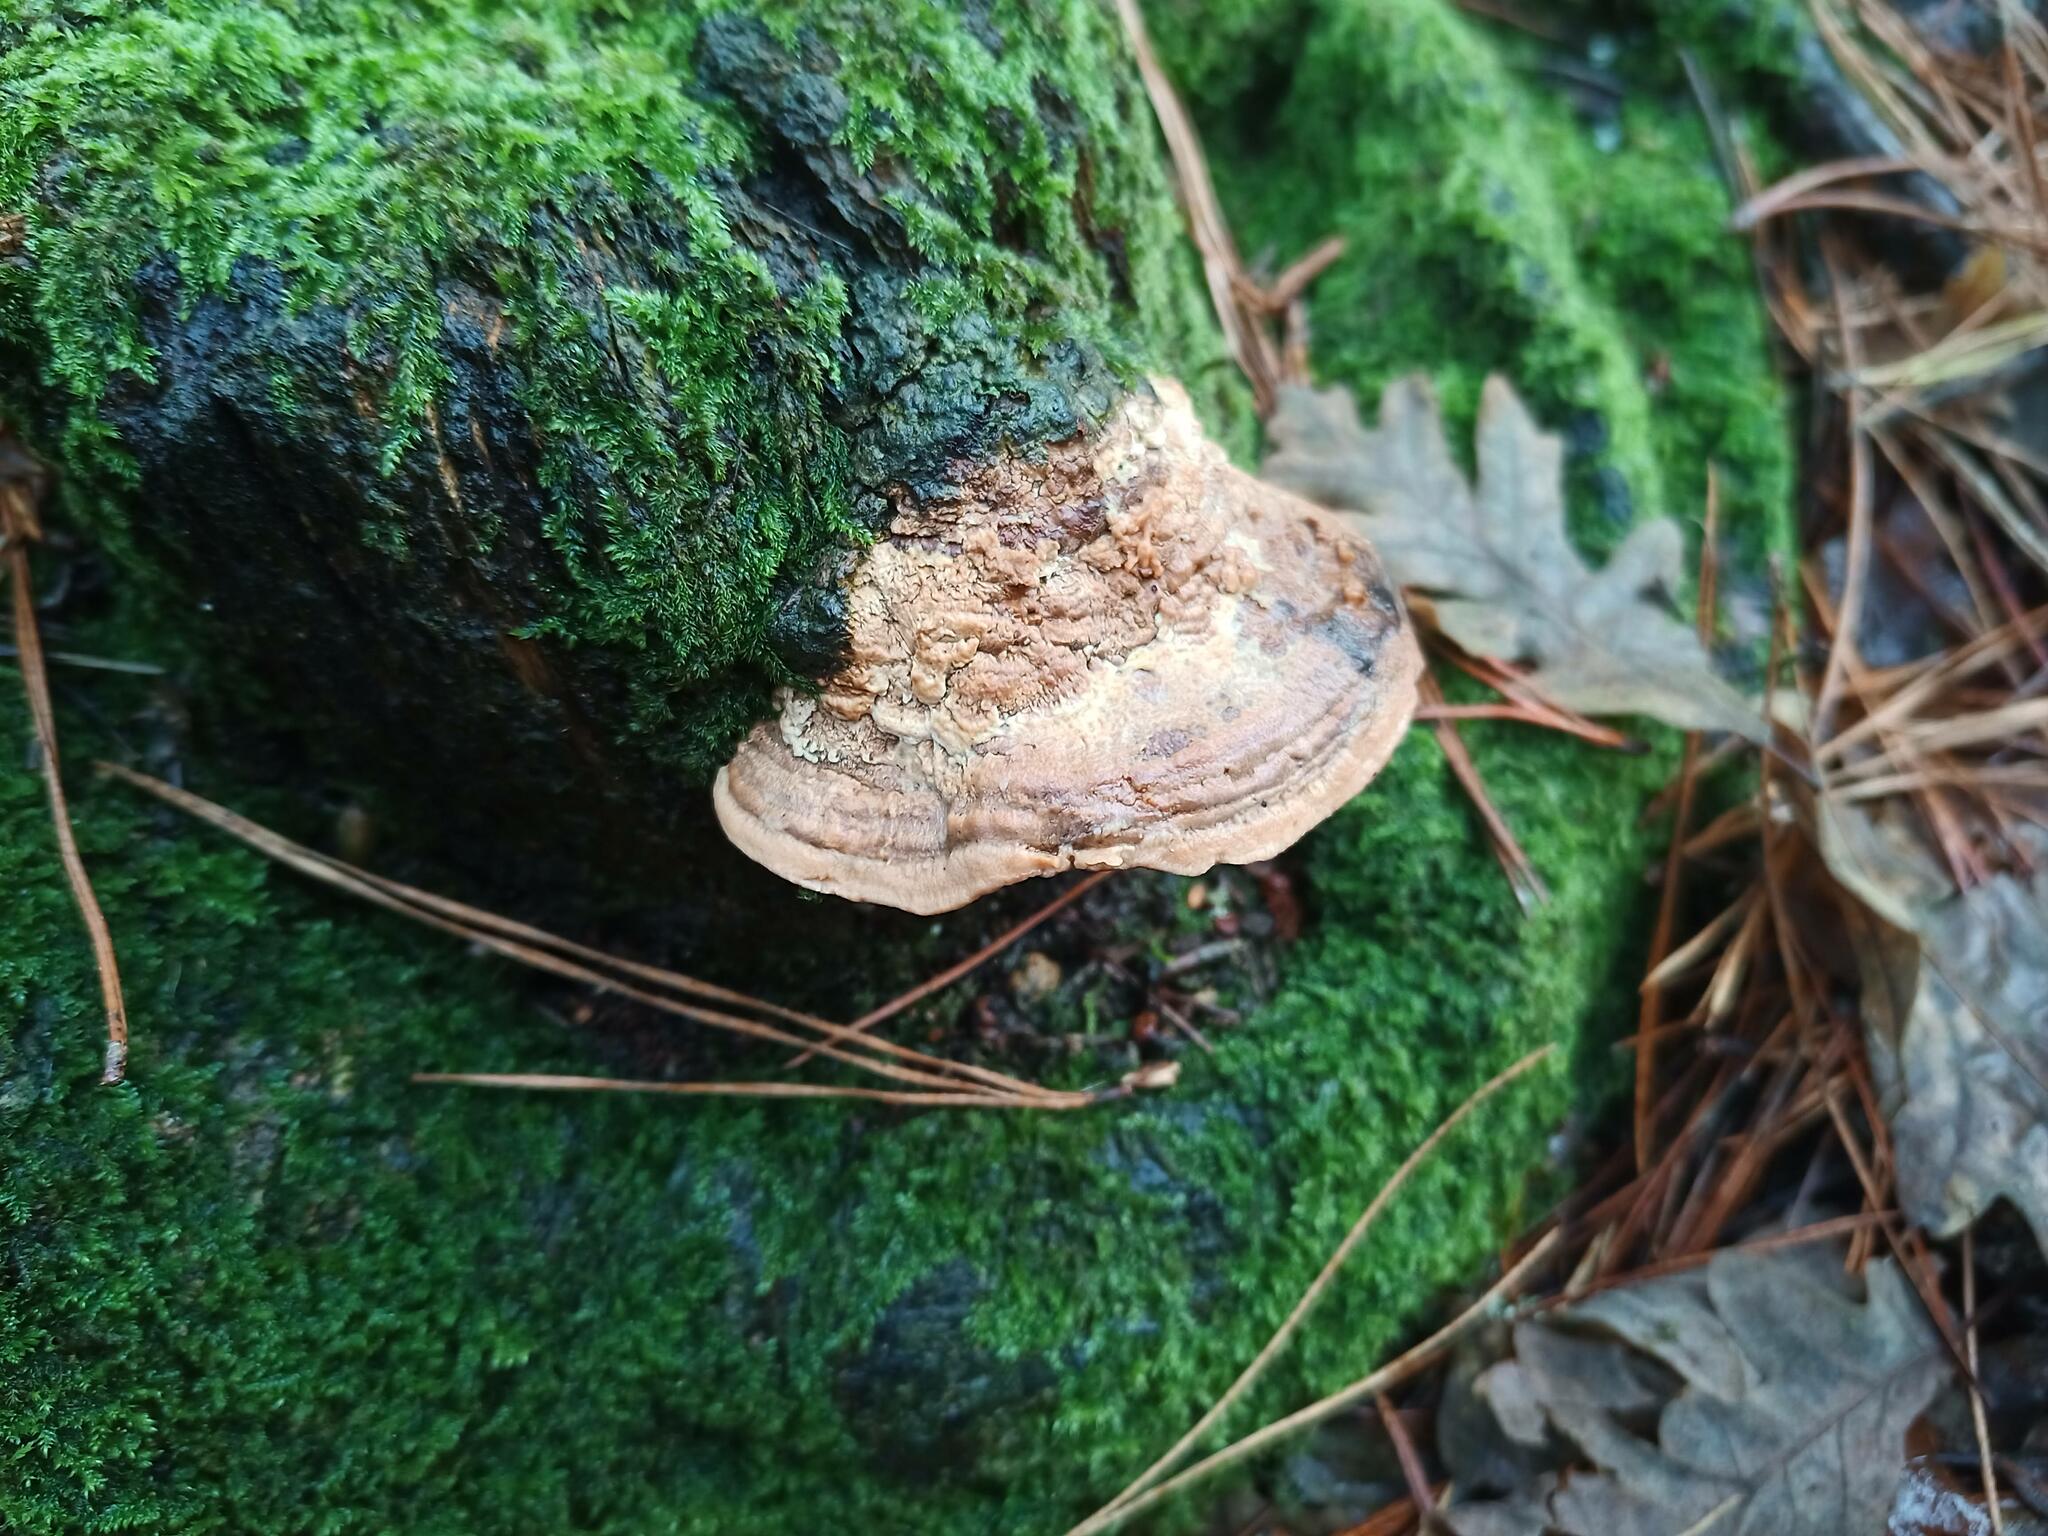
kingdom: Fungi
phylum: Basidiomycota
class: Agaricomycetes
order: Polyporales
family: Fomitopsidaceae
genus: Fomitopsis
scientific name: Fomitopsis
